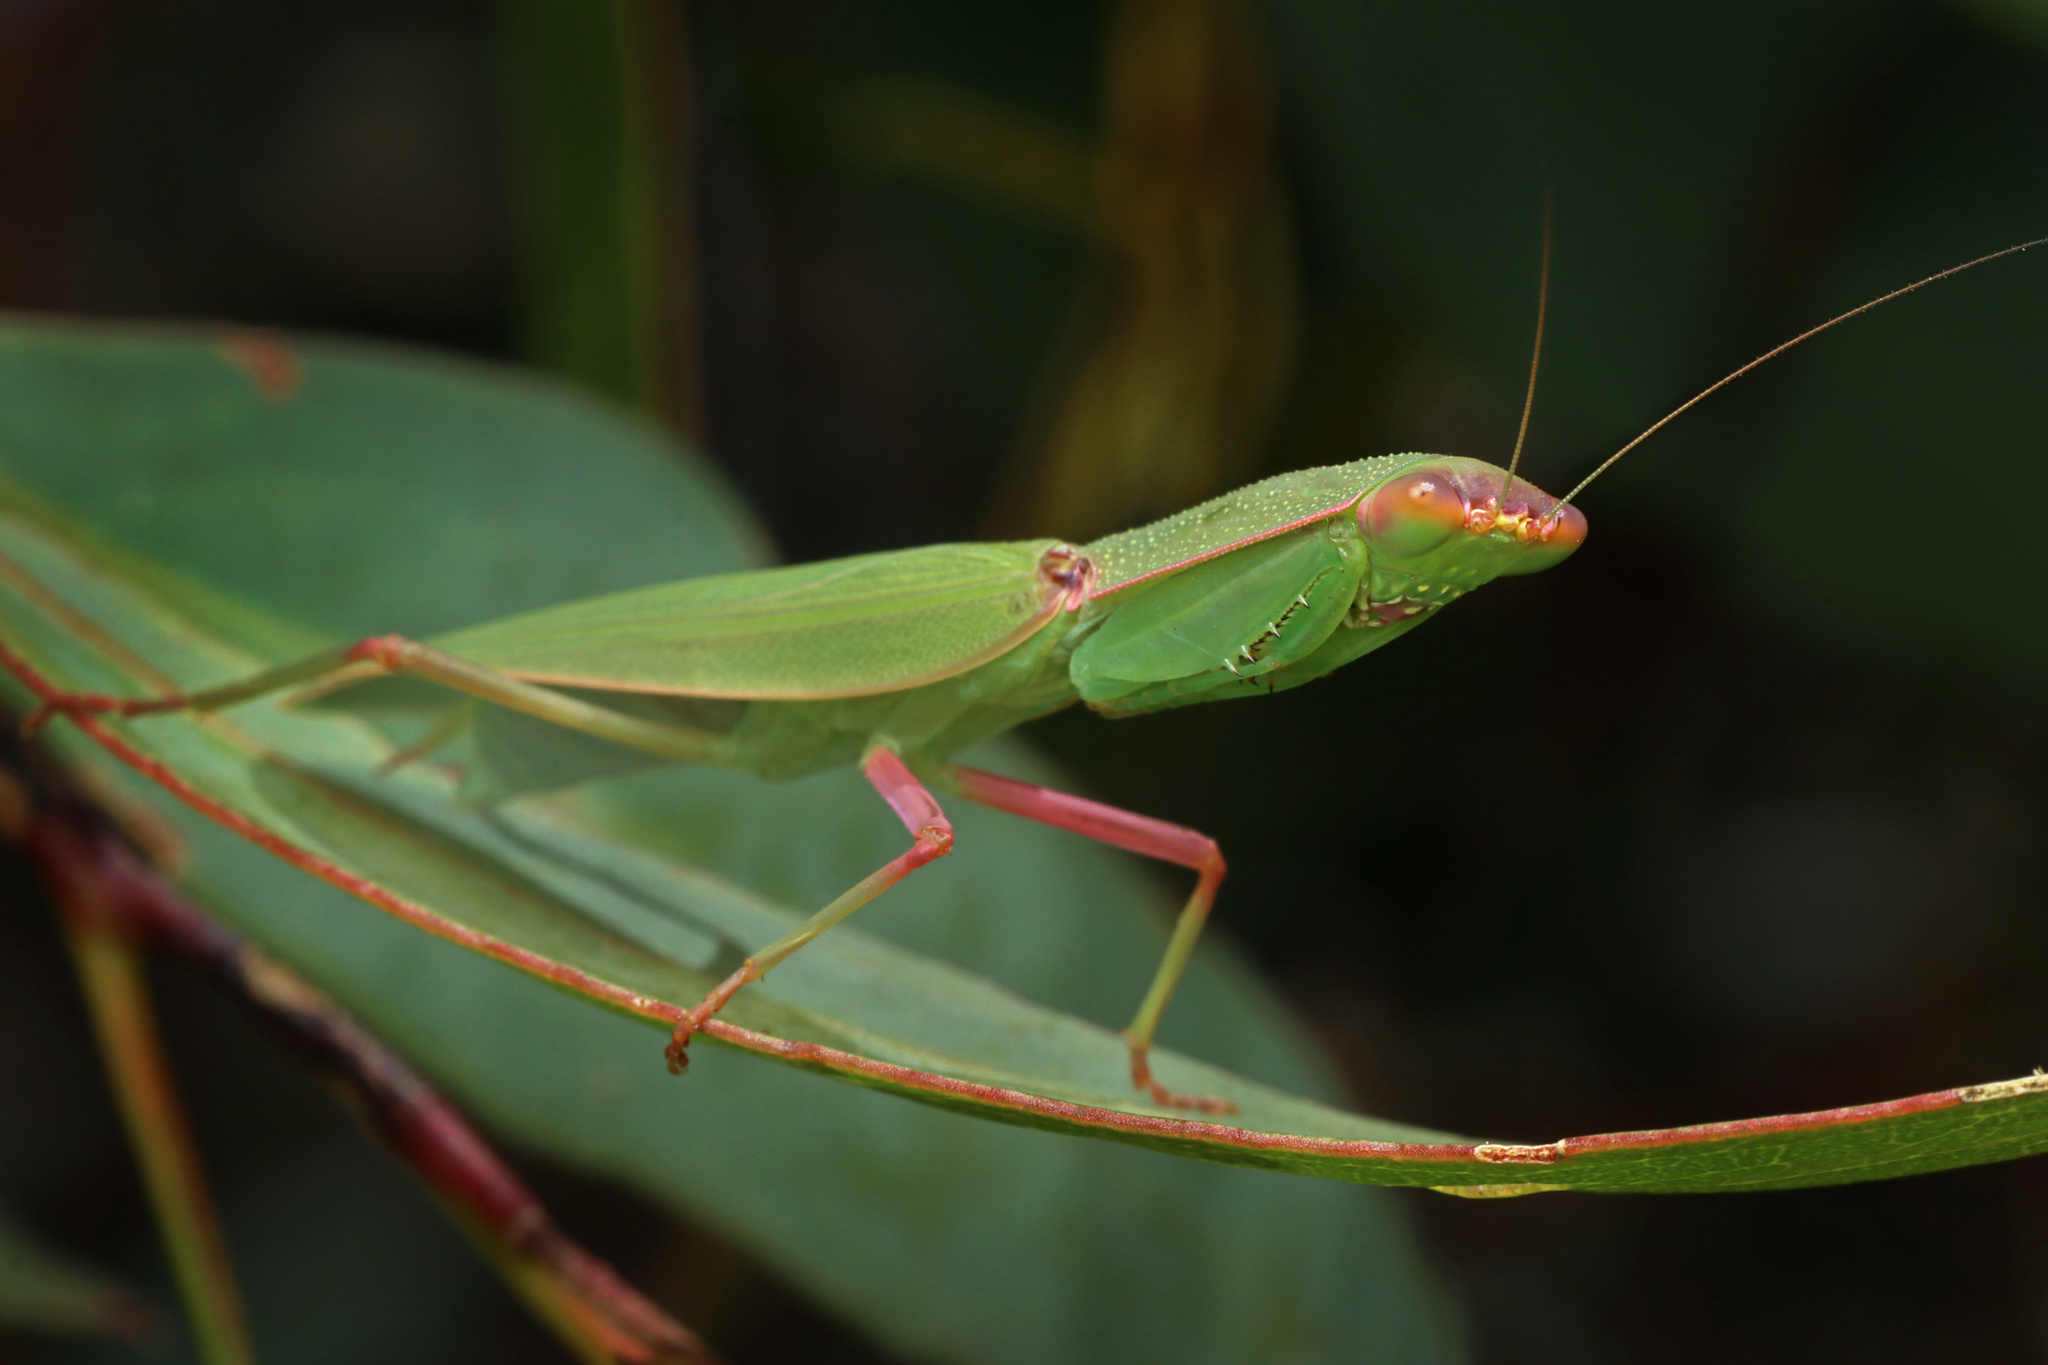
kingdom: Animalia
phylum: Arthropoda
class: Insecta
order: Mantodea
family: Mantidae
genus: Orthodera
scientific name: Orthodera ministralis
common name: Mantis
